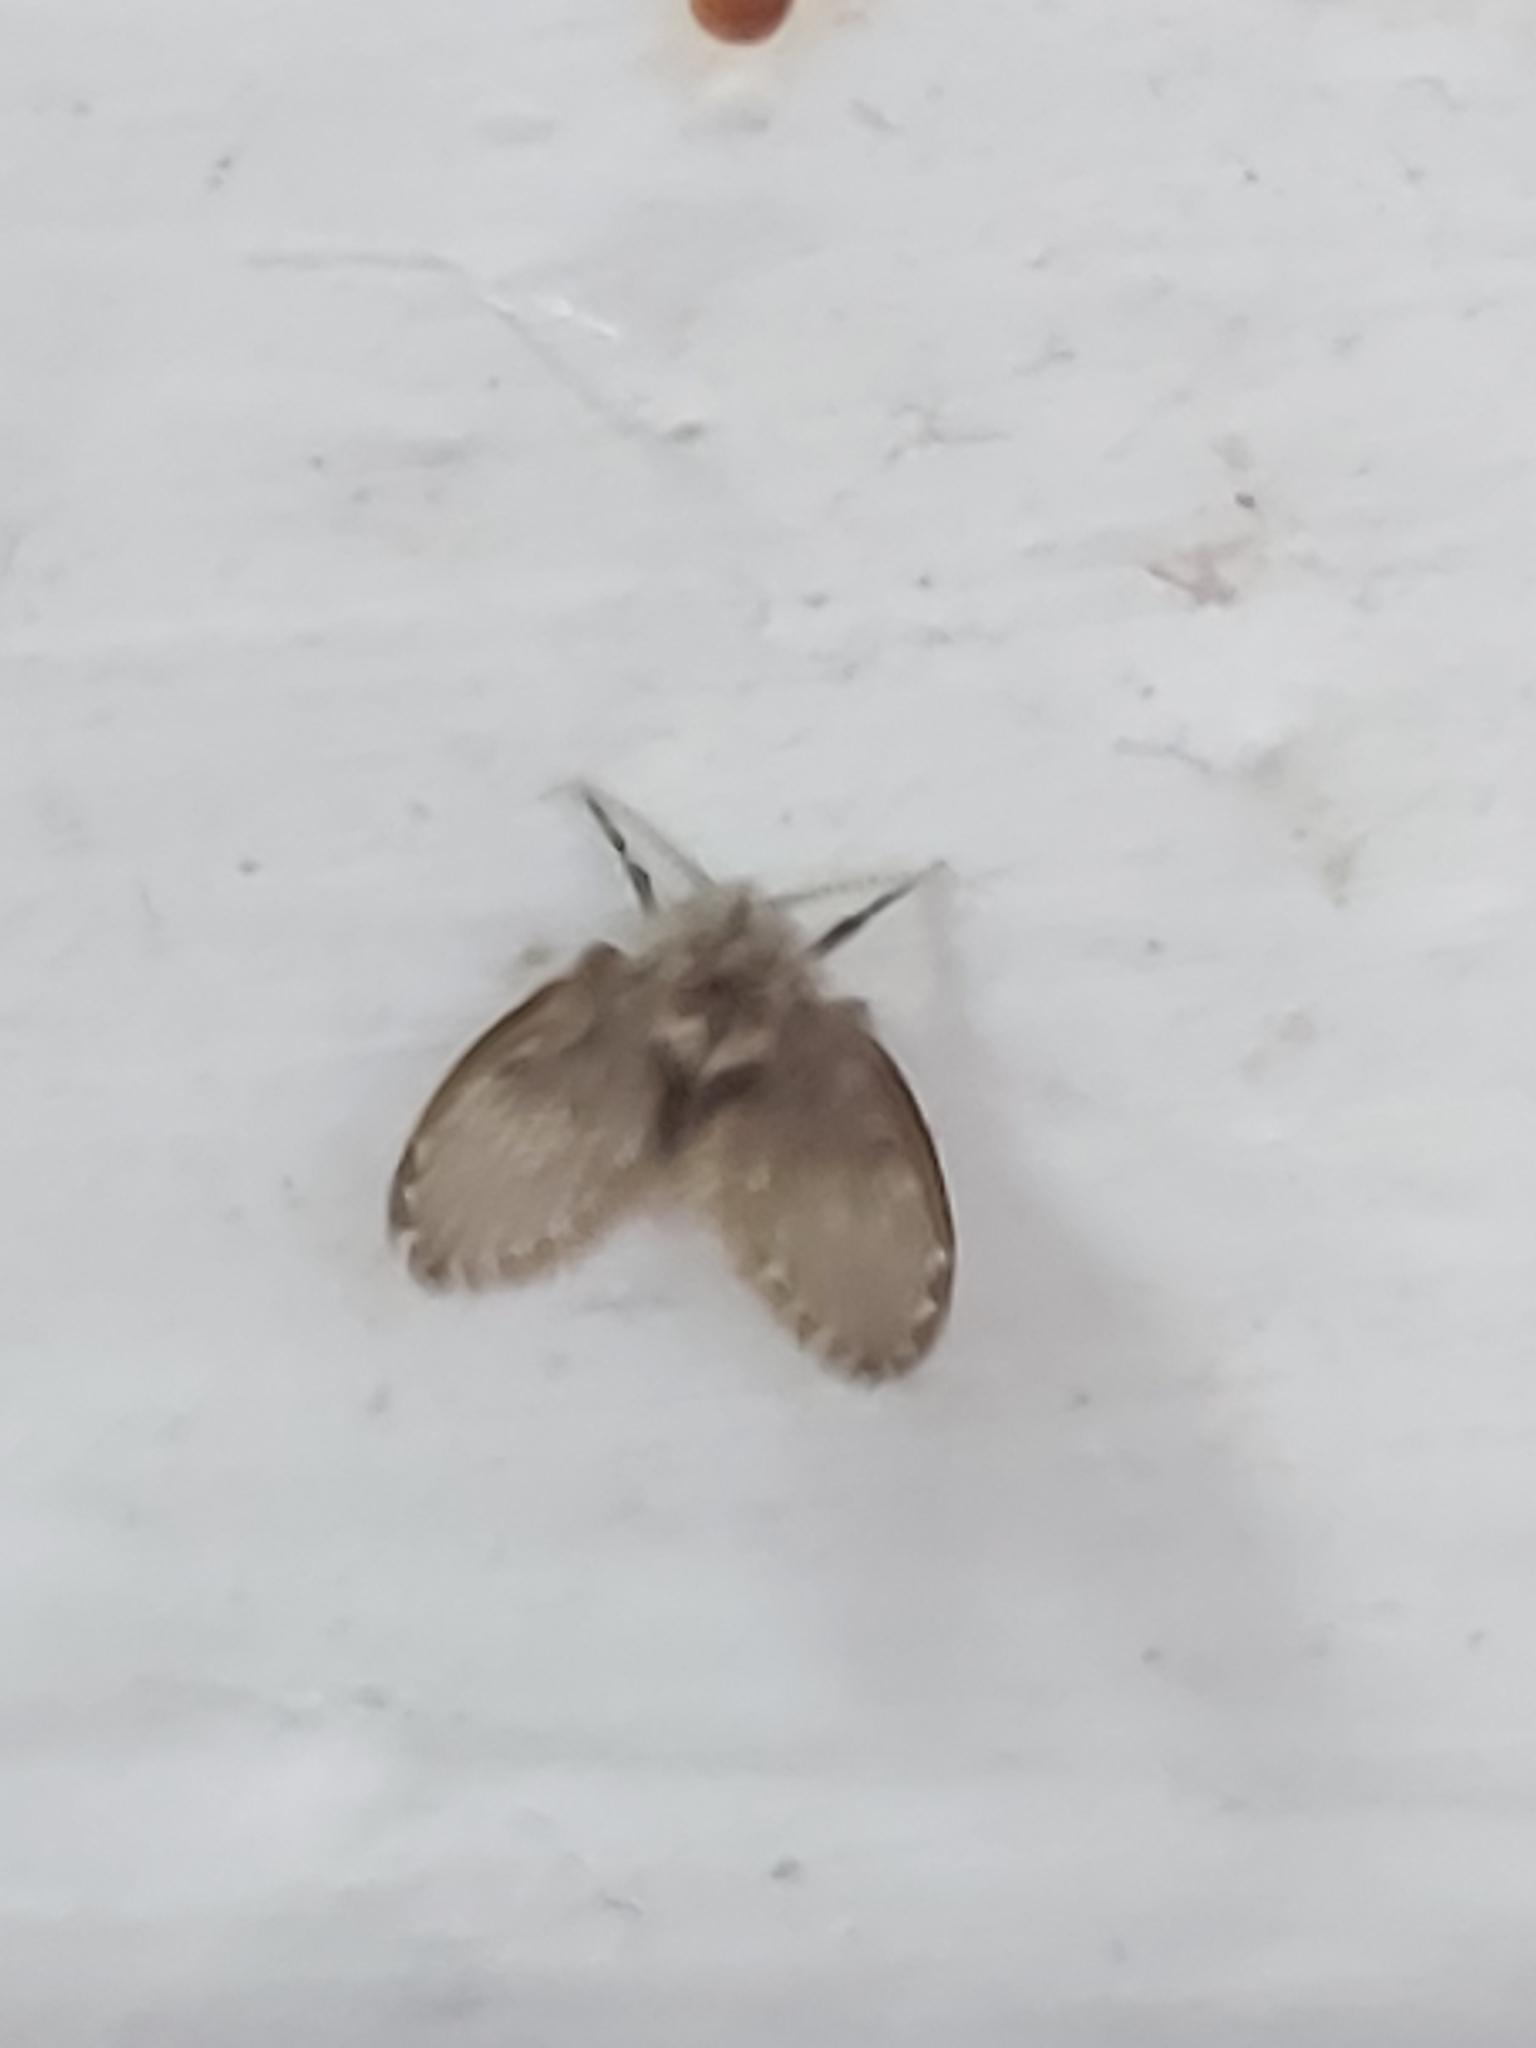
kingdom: Animalia
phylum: Arthropoda
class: Insecta
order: Diptera
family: Psychodidae
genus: Clogmia
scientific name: Clogmia albipunctatus
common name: White-spotted moth fly
